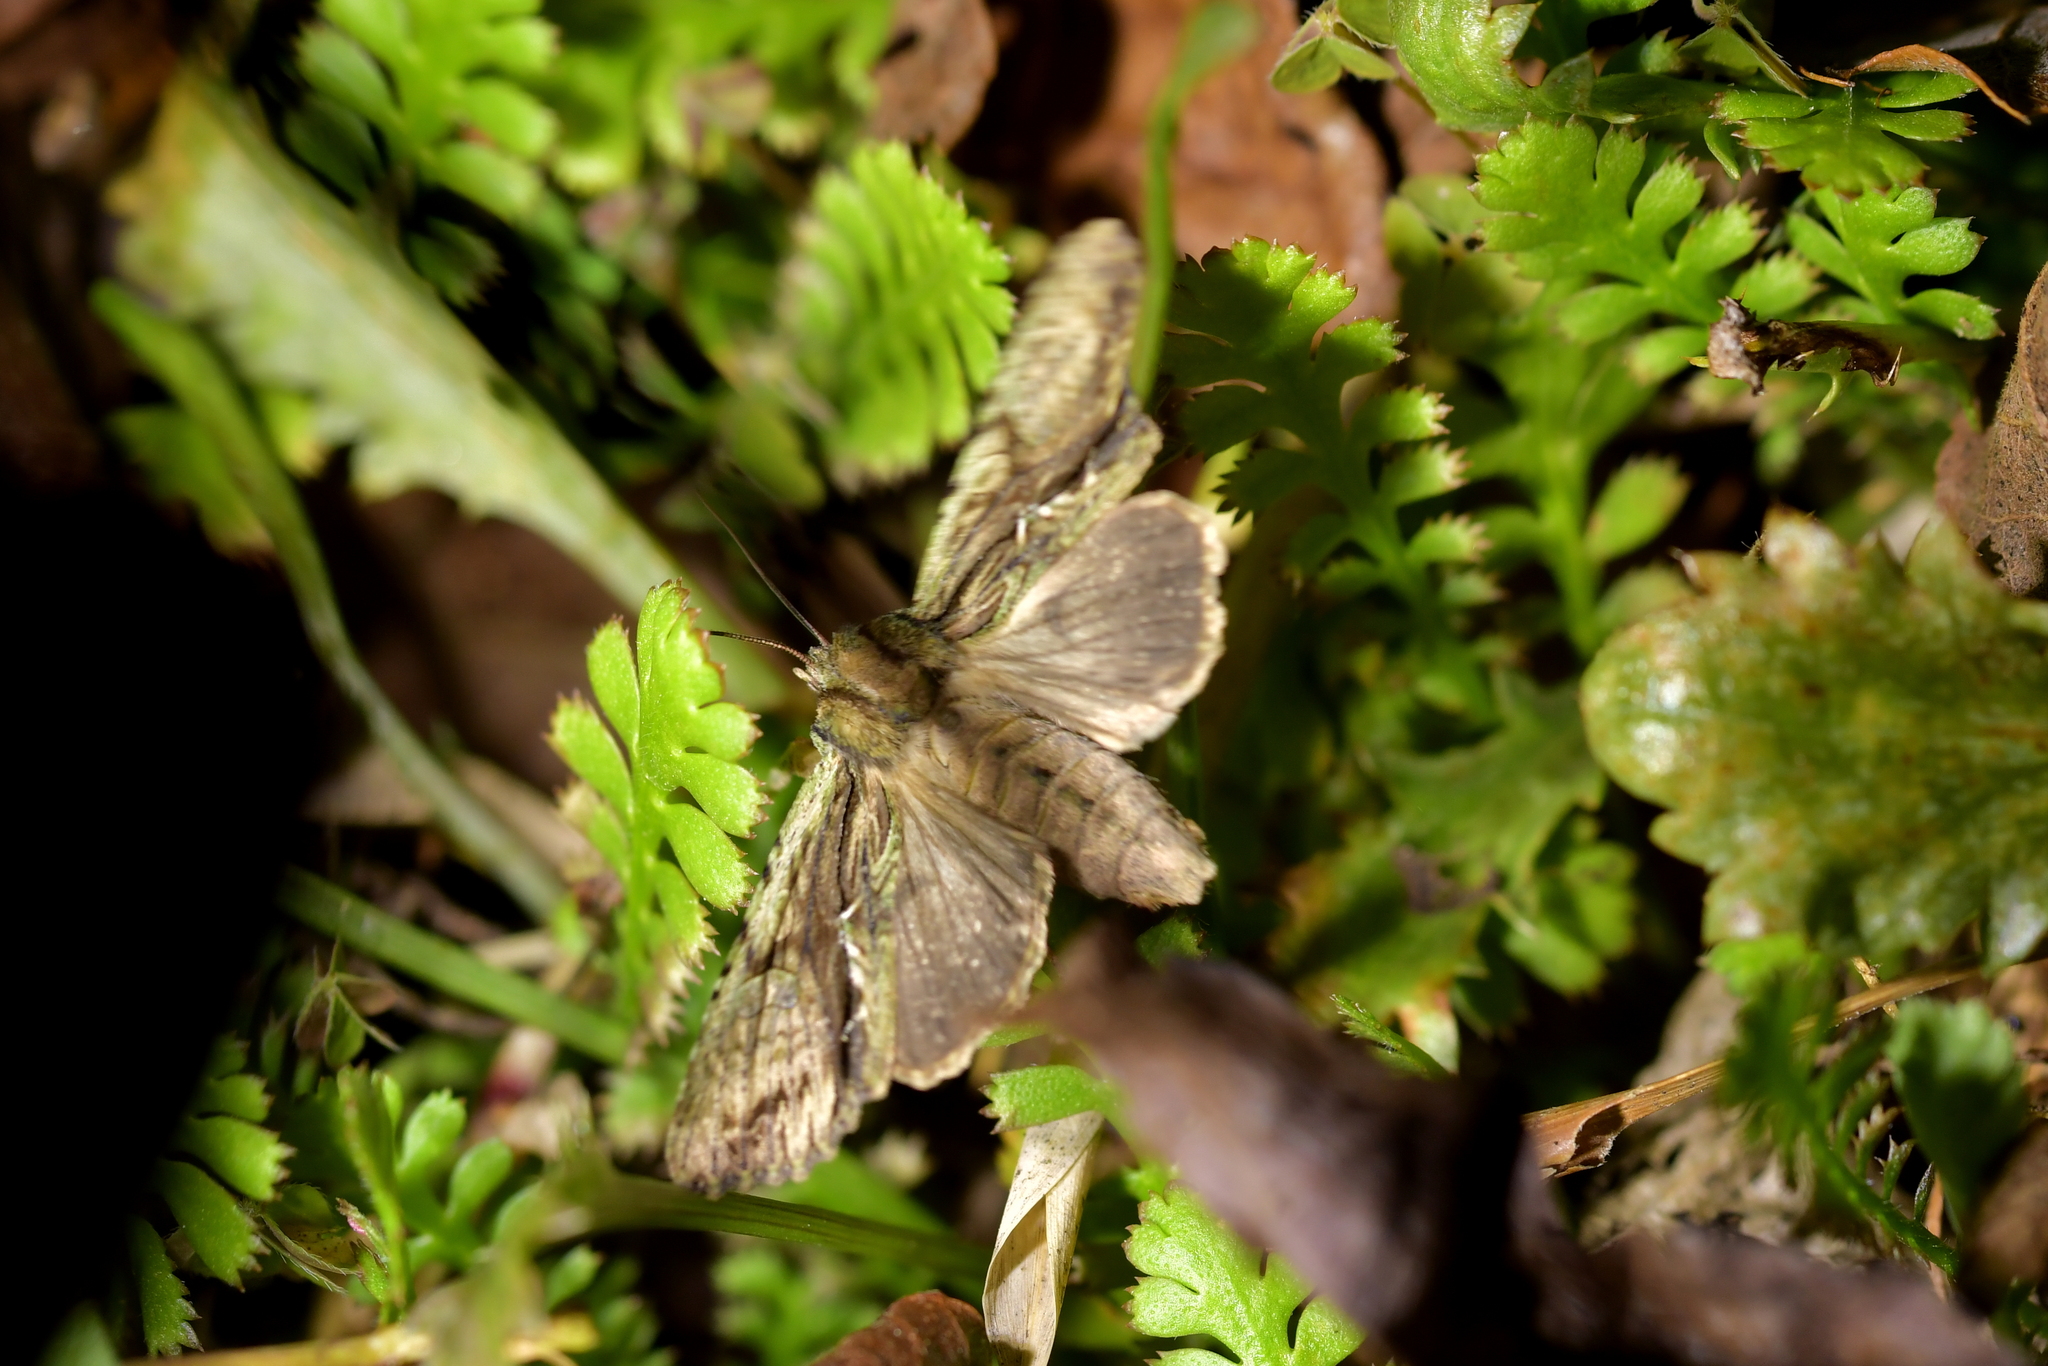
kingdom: Animalia
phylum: Arthropoda
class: Insecta
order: Lepidoptera
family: Noctuidae
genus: Meterana
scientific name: Meterana decorata
